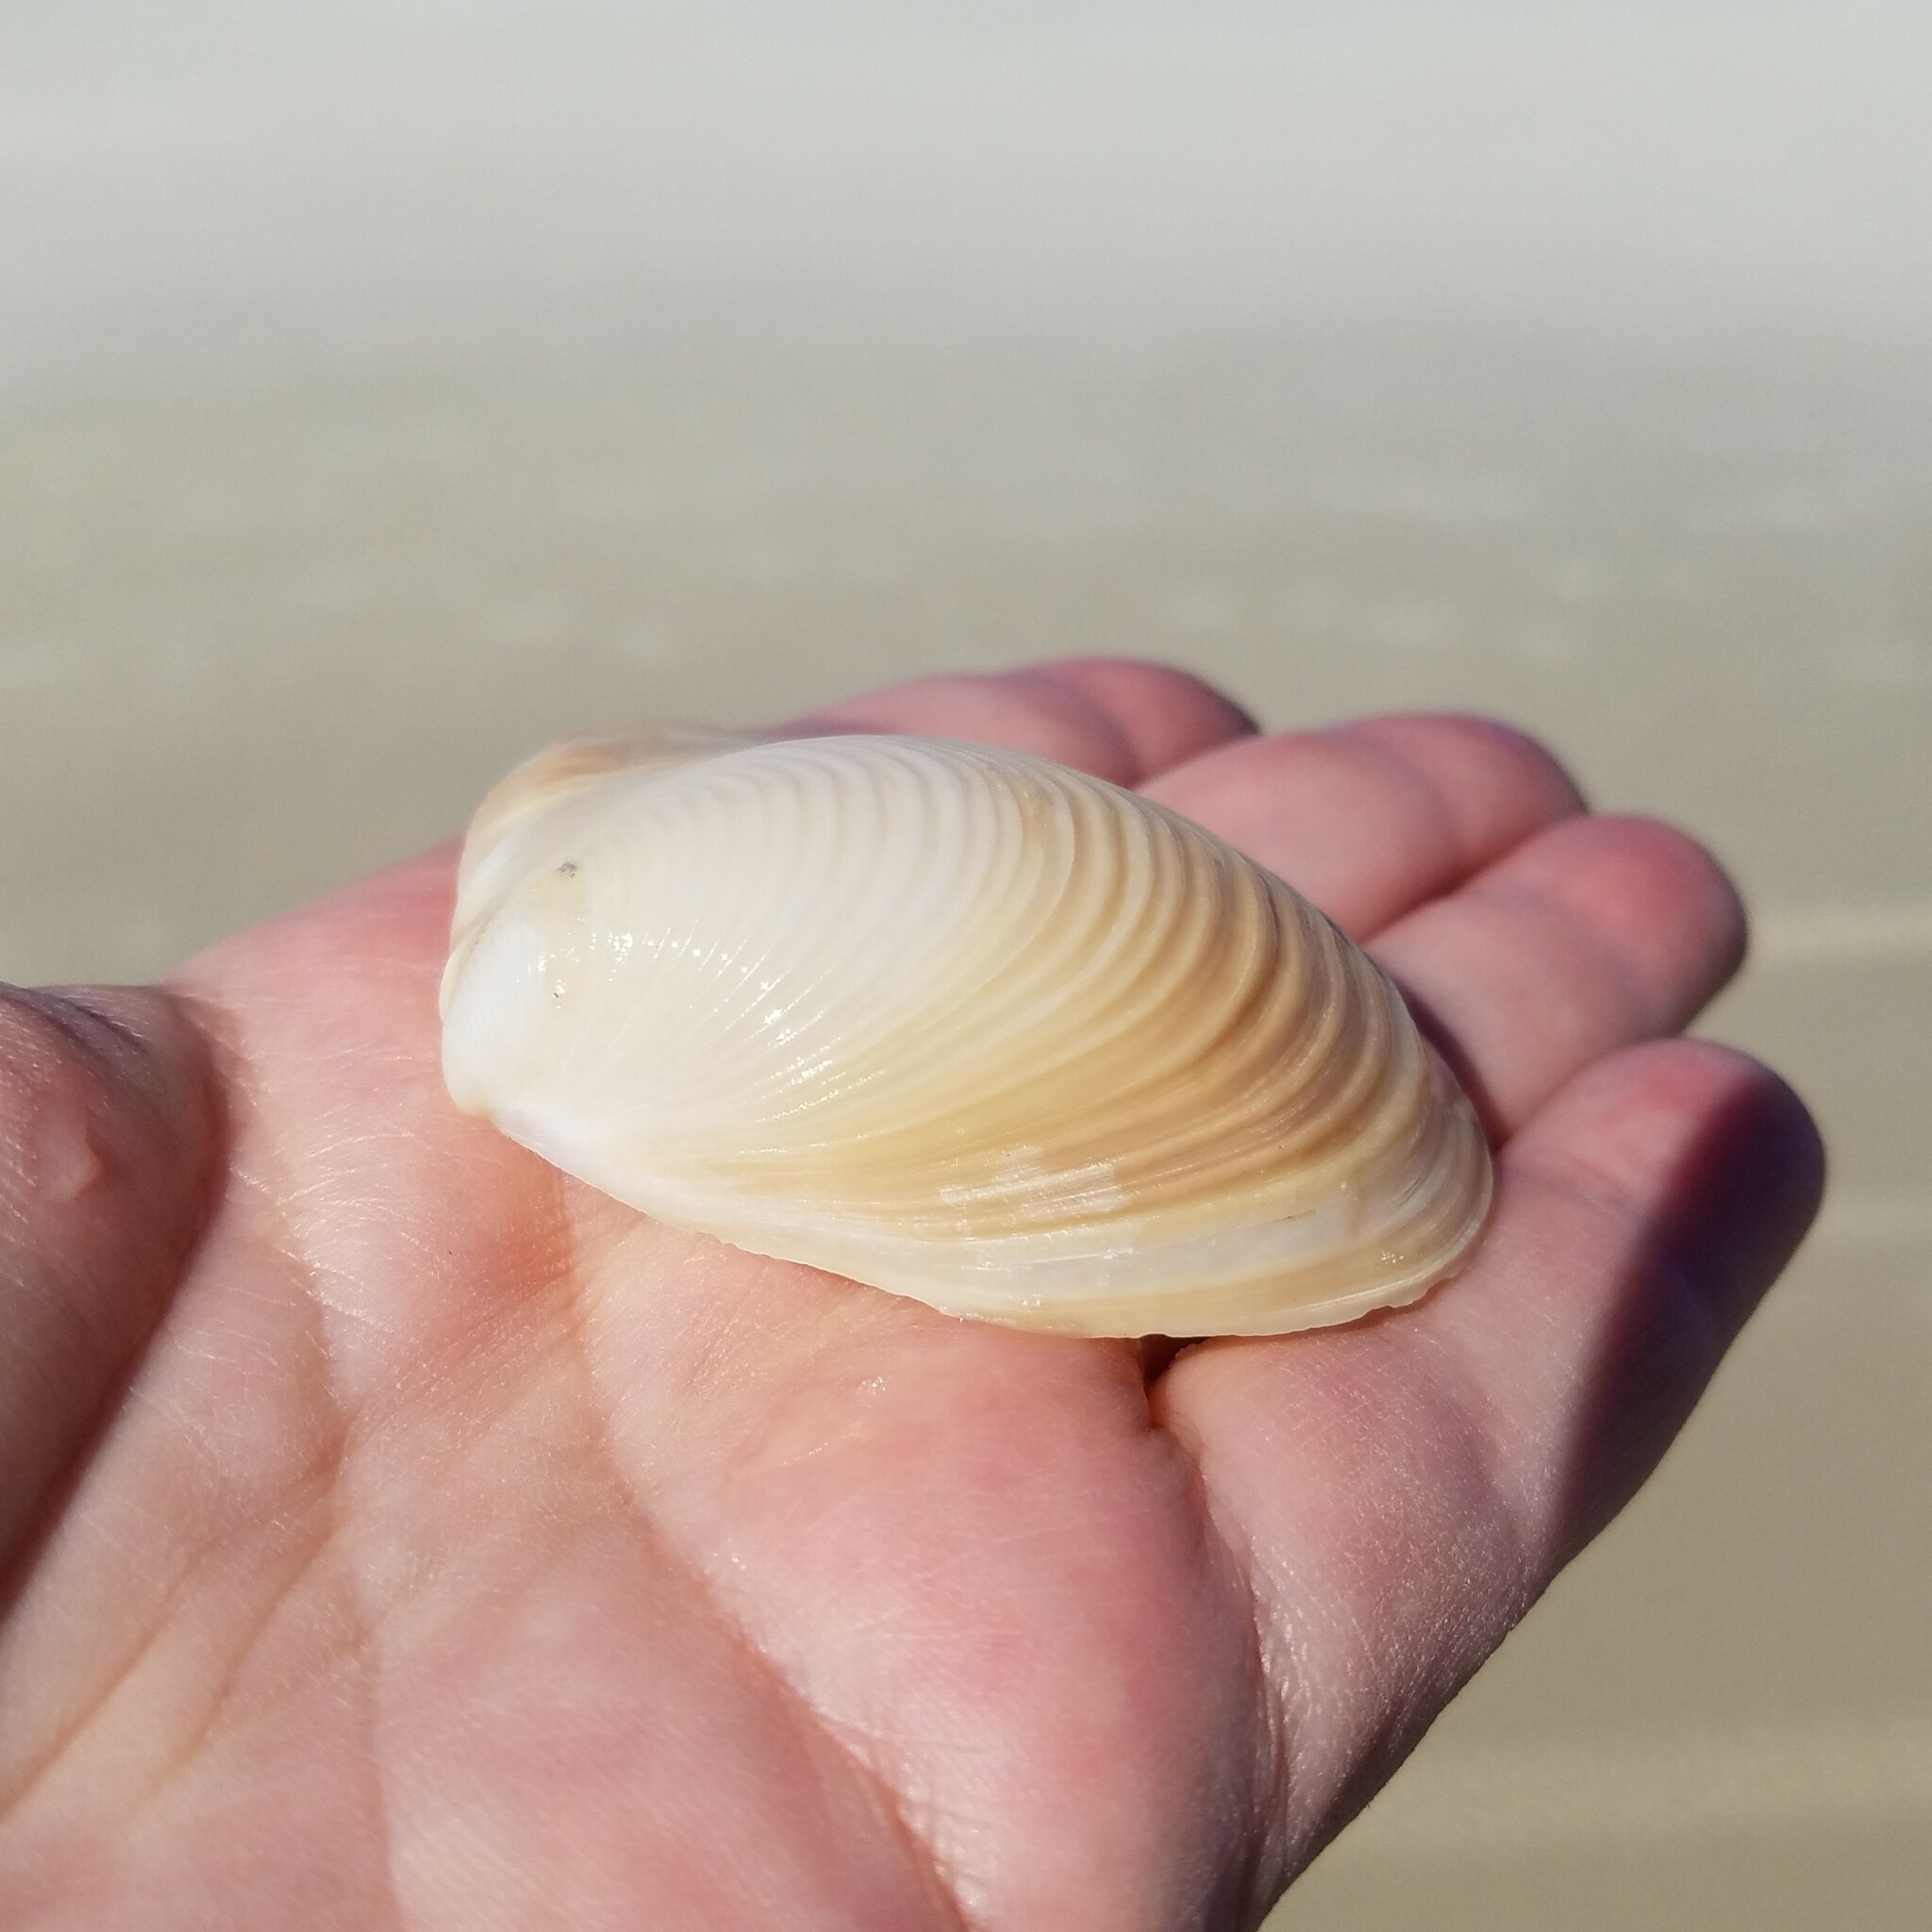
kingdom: Animalia
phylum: Mollusca
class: Bivalvia
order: Venerida
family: Anatinellidae
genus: Raeta
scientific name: Raeta plicatella
